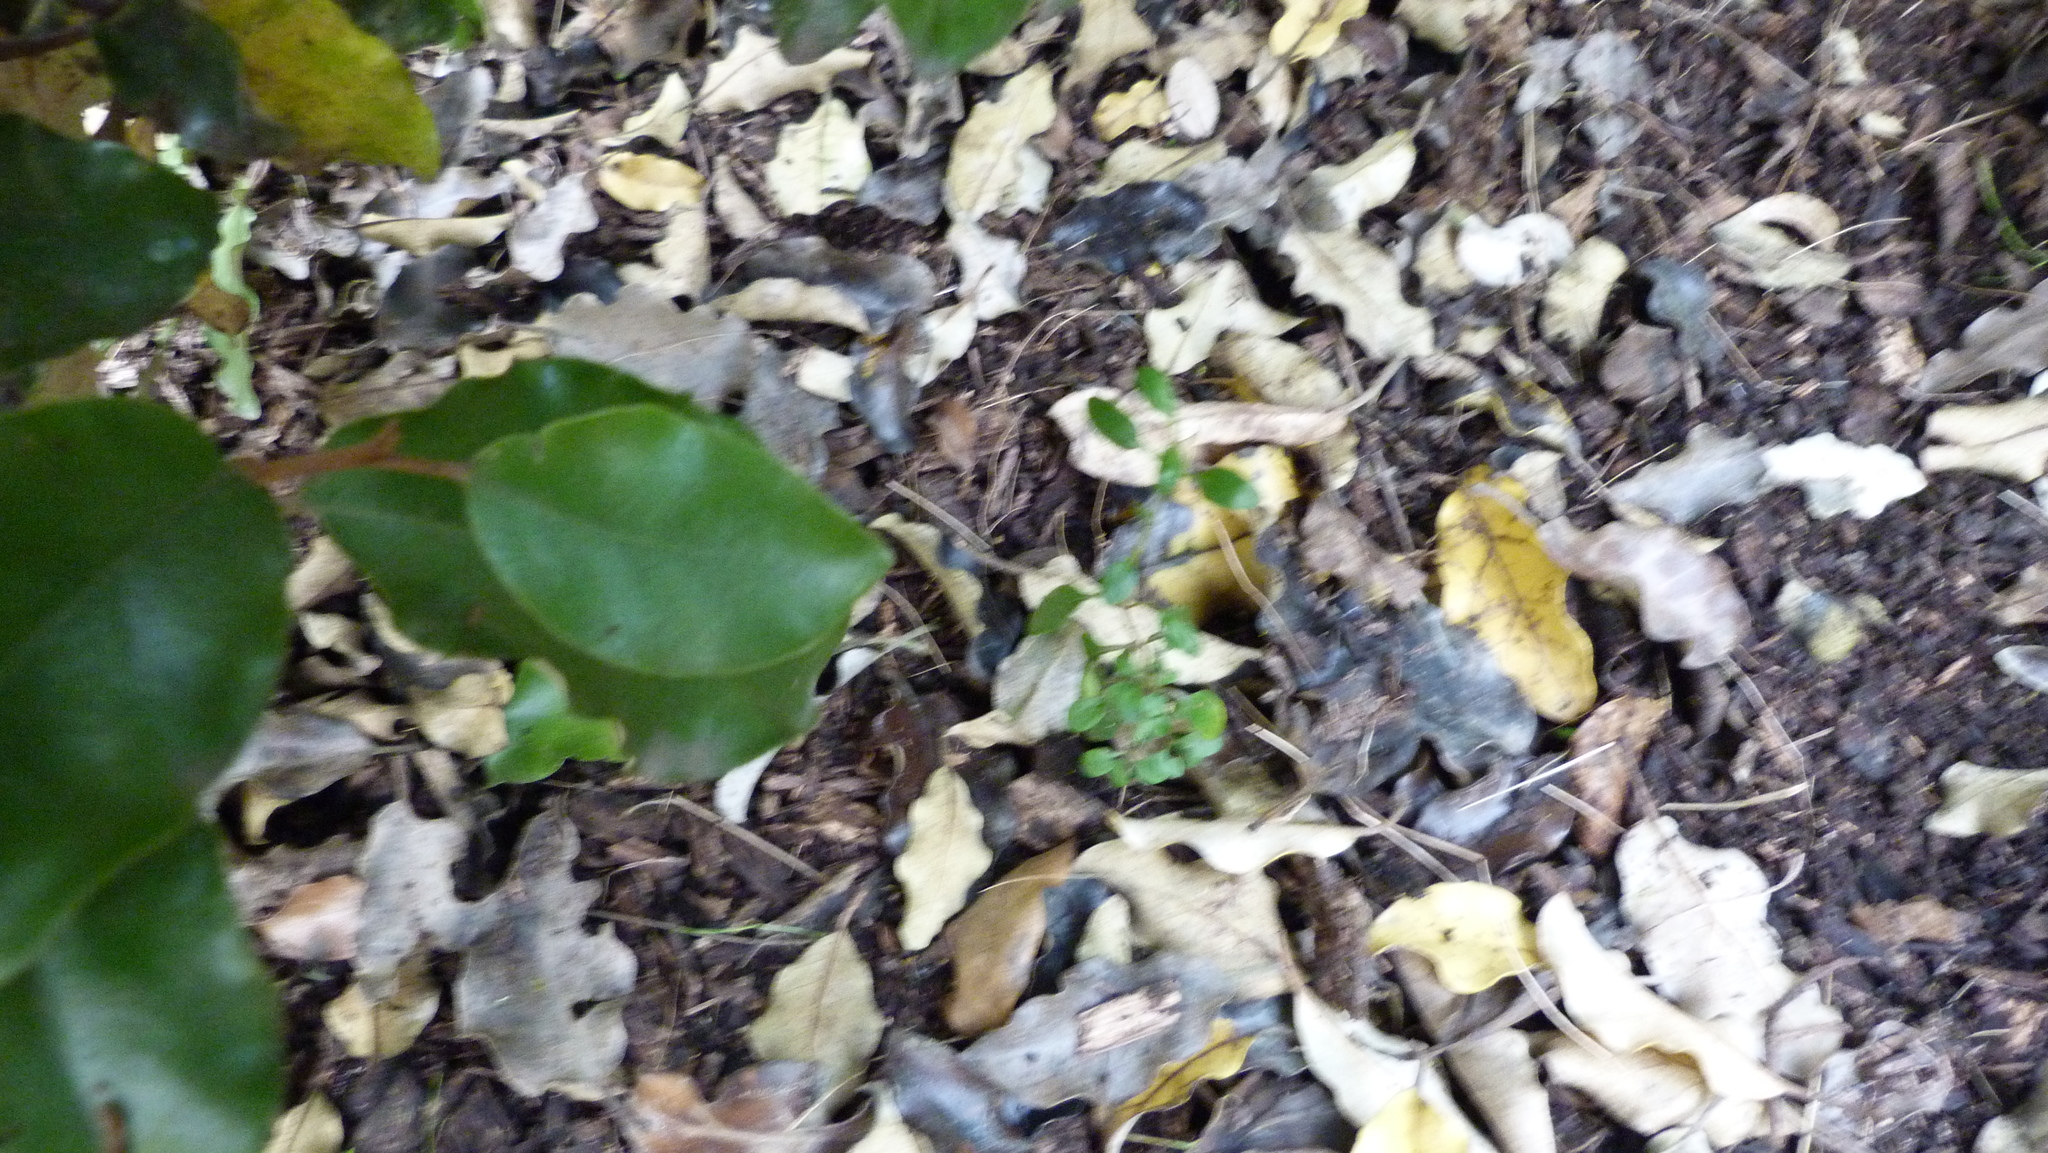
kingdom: Plantae
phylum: Tracheophyta
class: Magnoliopsida
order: Gentianales
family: Rubiaceae
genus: Coprosma
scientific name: Coprosma propinqua
